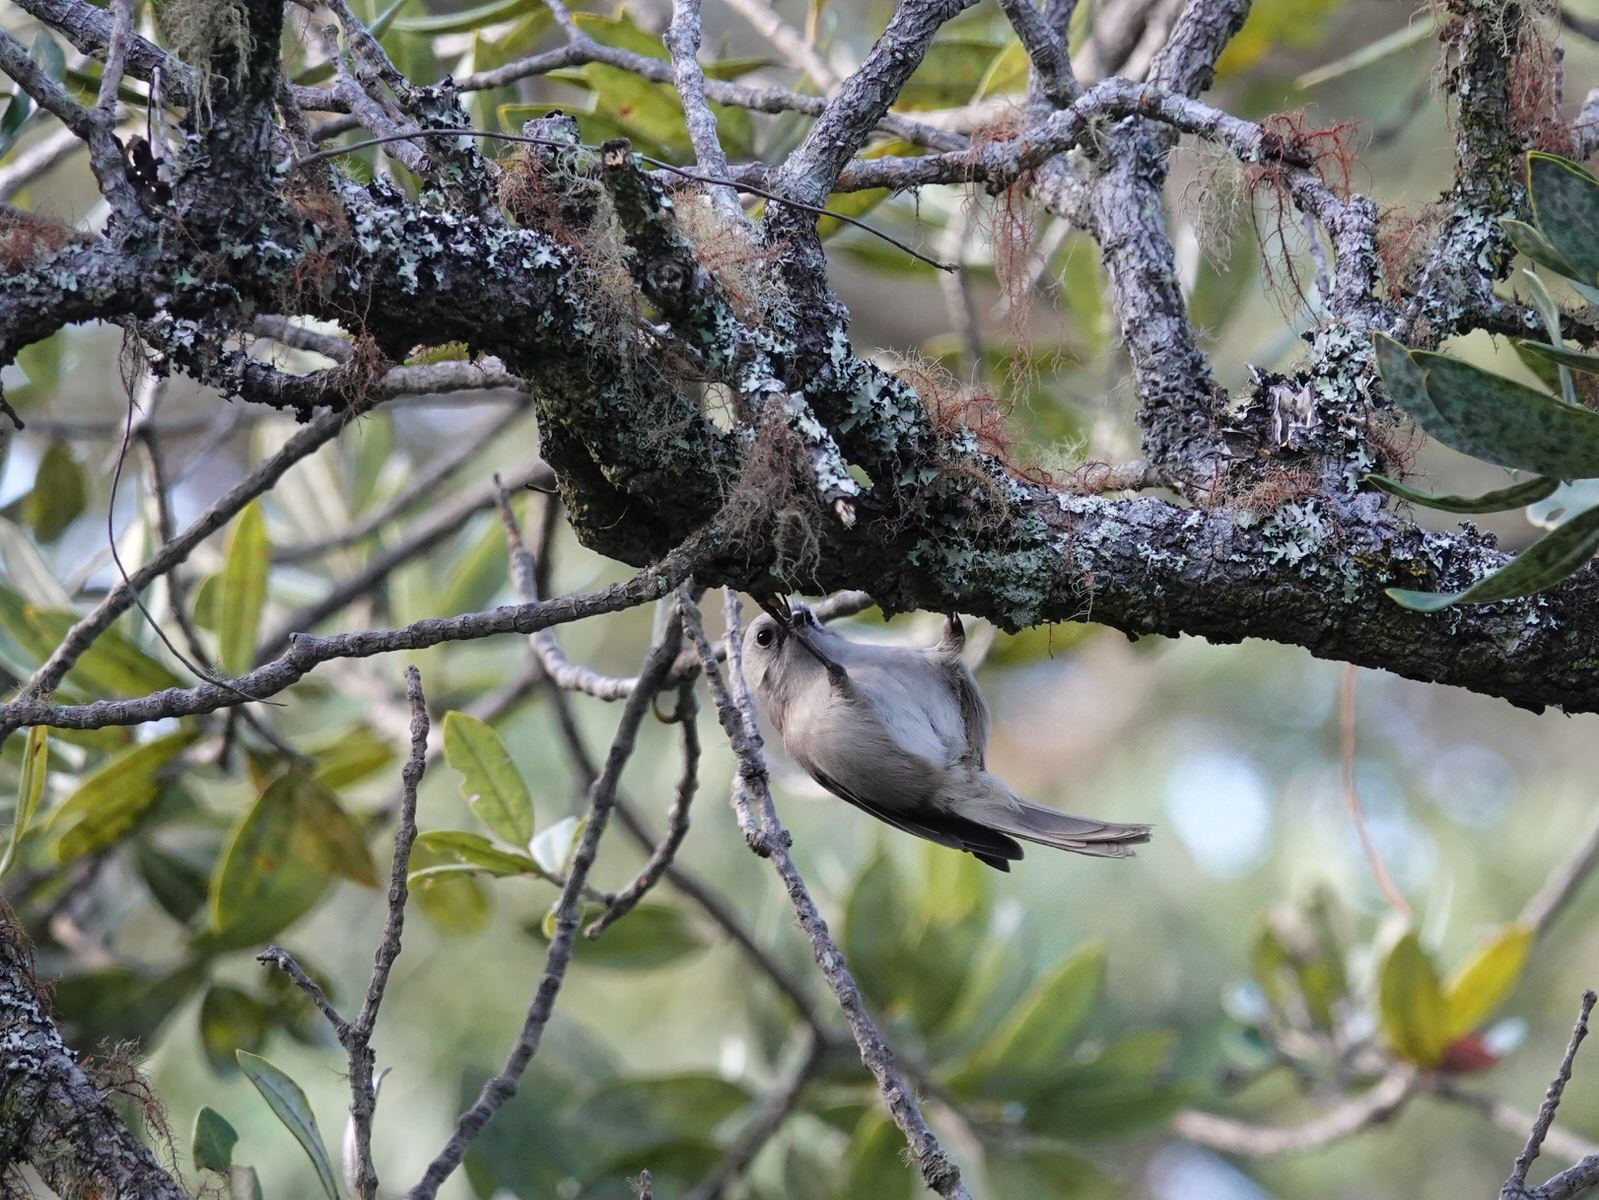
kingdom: Animalia
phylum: Chordata
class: Aves
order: Passeriformes
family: Acanthizidae
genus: Mohoua
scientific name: Mohoua albicilla
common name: Whitehead
